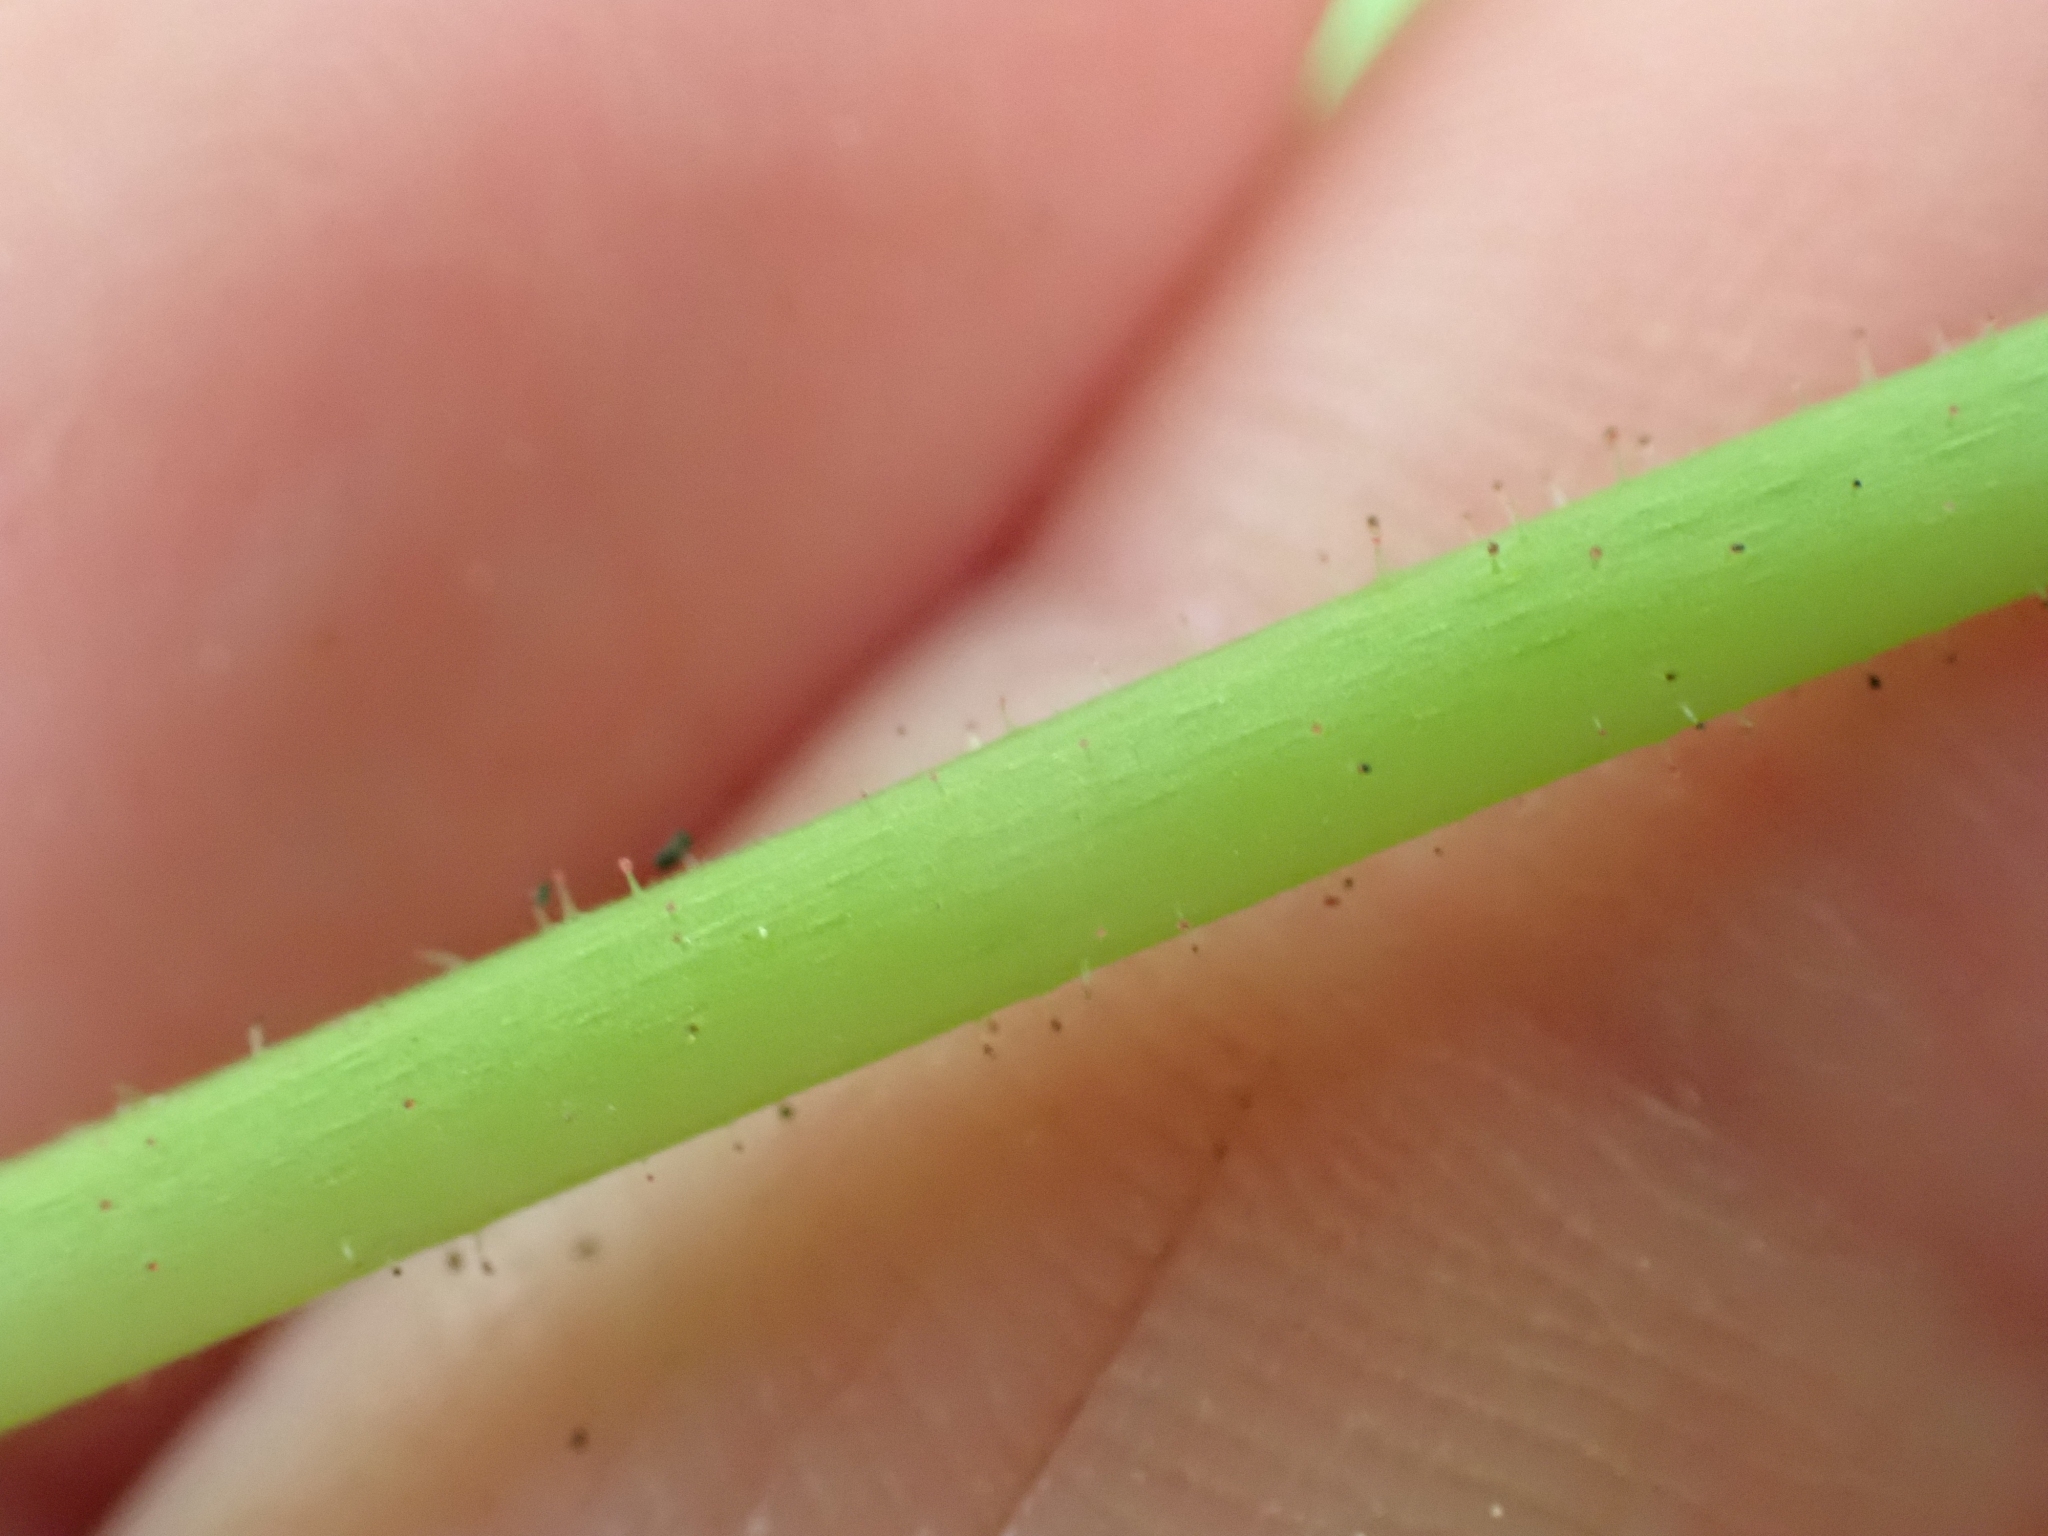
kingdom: Plantae
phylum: Tracheophyta
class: Magnoliopsida
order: Rosales
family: Rosaceae
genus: Rubus
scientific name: Rubus parviflorus
